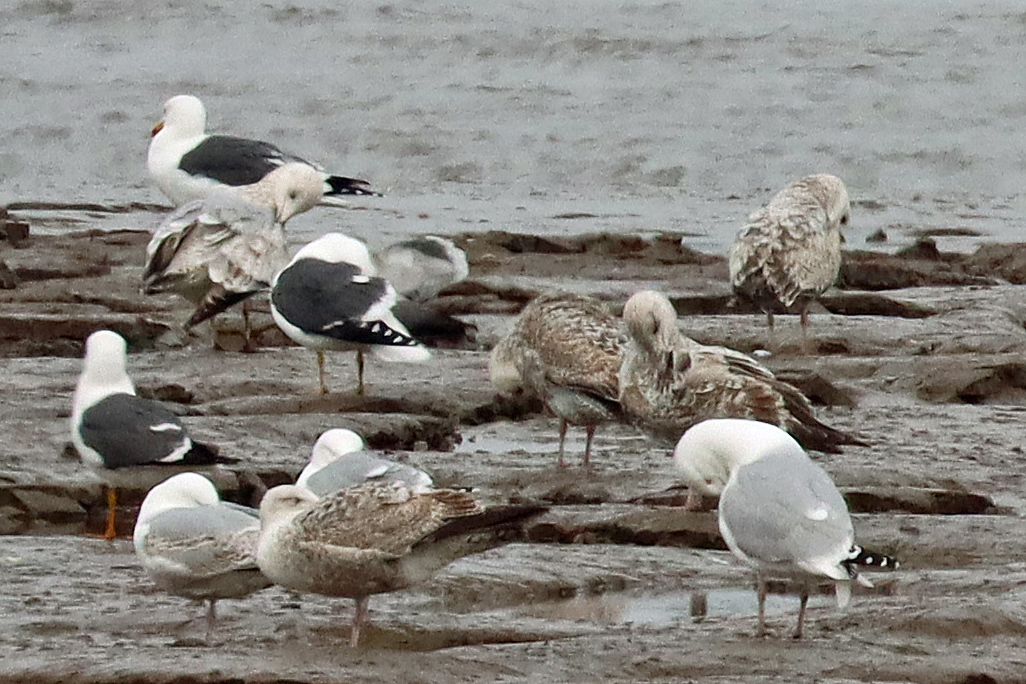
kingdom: Animalia
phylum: Chordata
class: Aves
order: Charadriiformes
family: Laridae
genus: Larus
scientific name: Larus argentatus
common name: Herring gull
